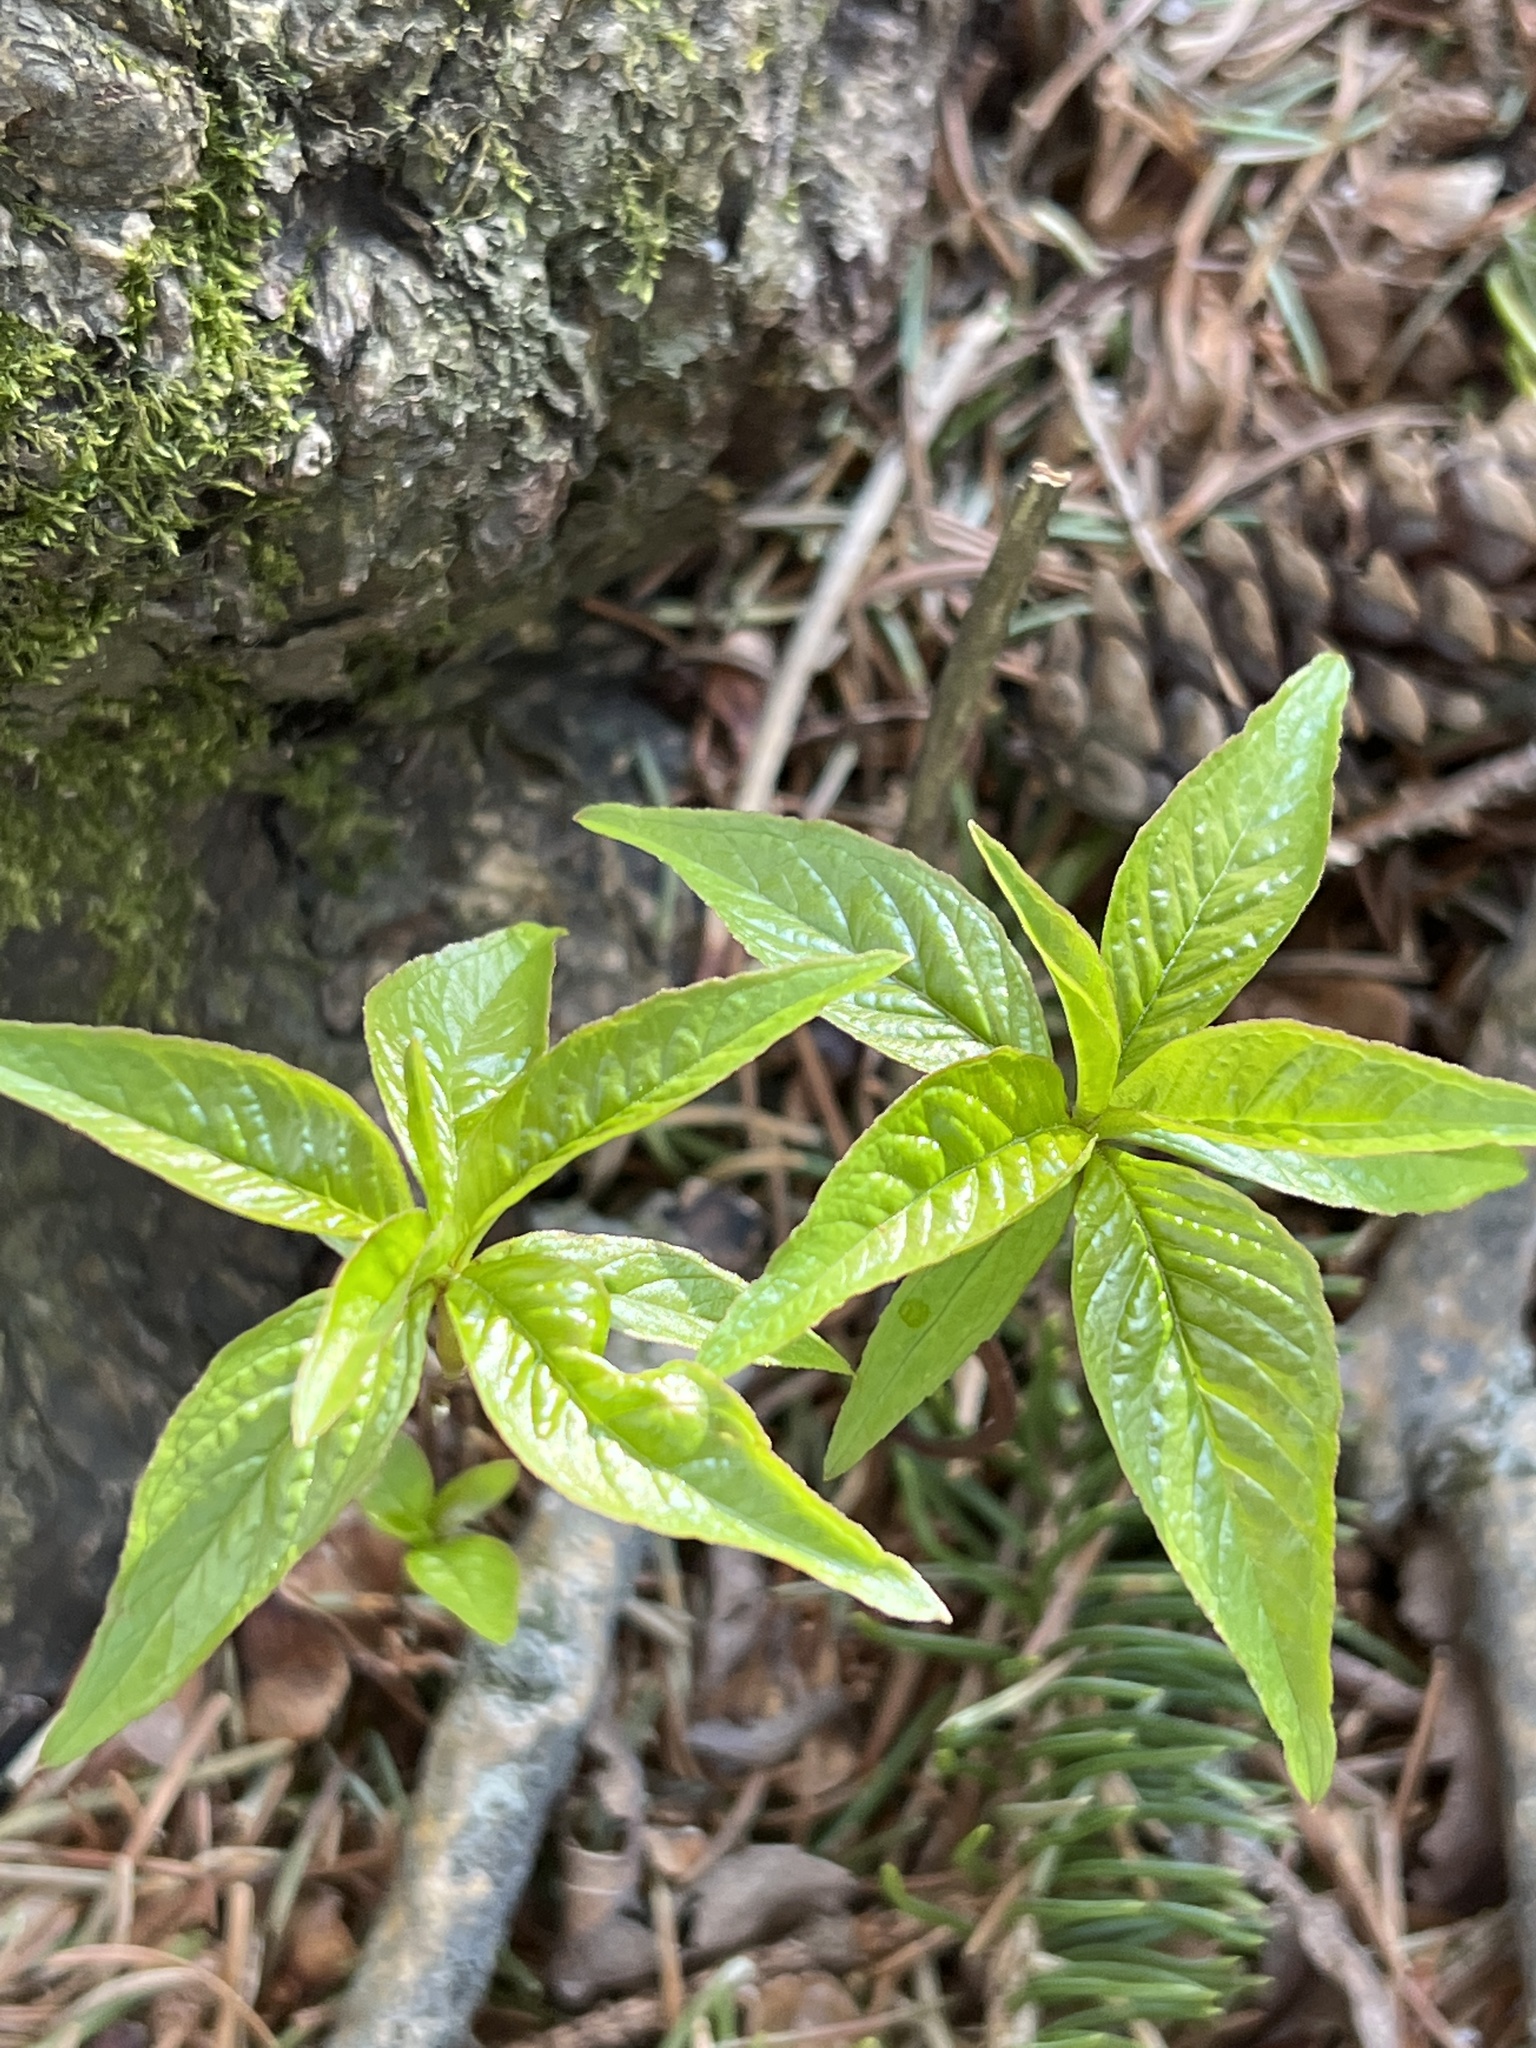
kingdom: Plantae
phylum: Tracheophyta
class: Magnoliopsida
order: Ericales
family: Primulaceae
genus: Lysimachia
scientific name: Lysimachia borealis
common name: American starflower
